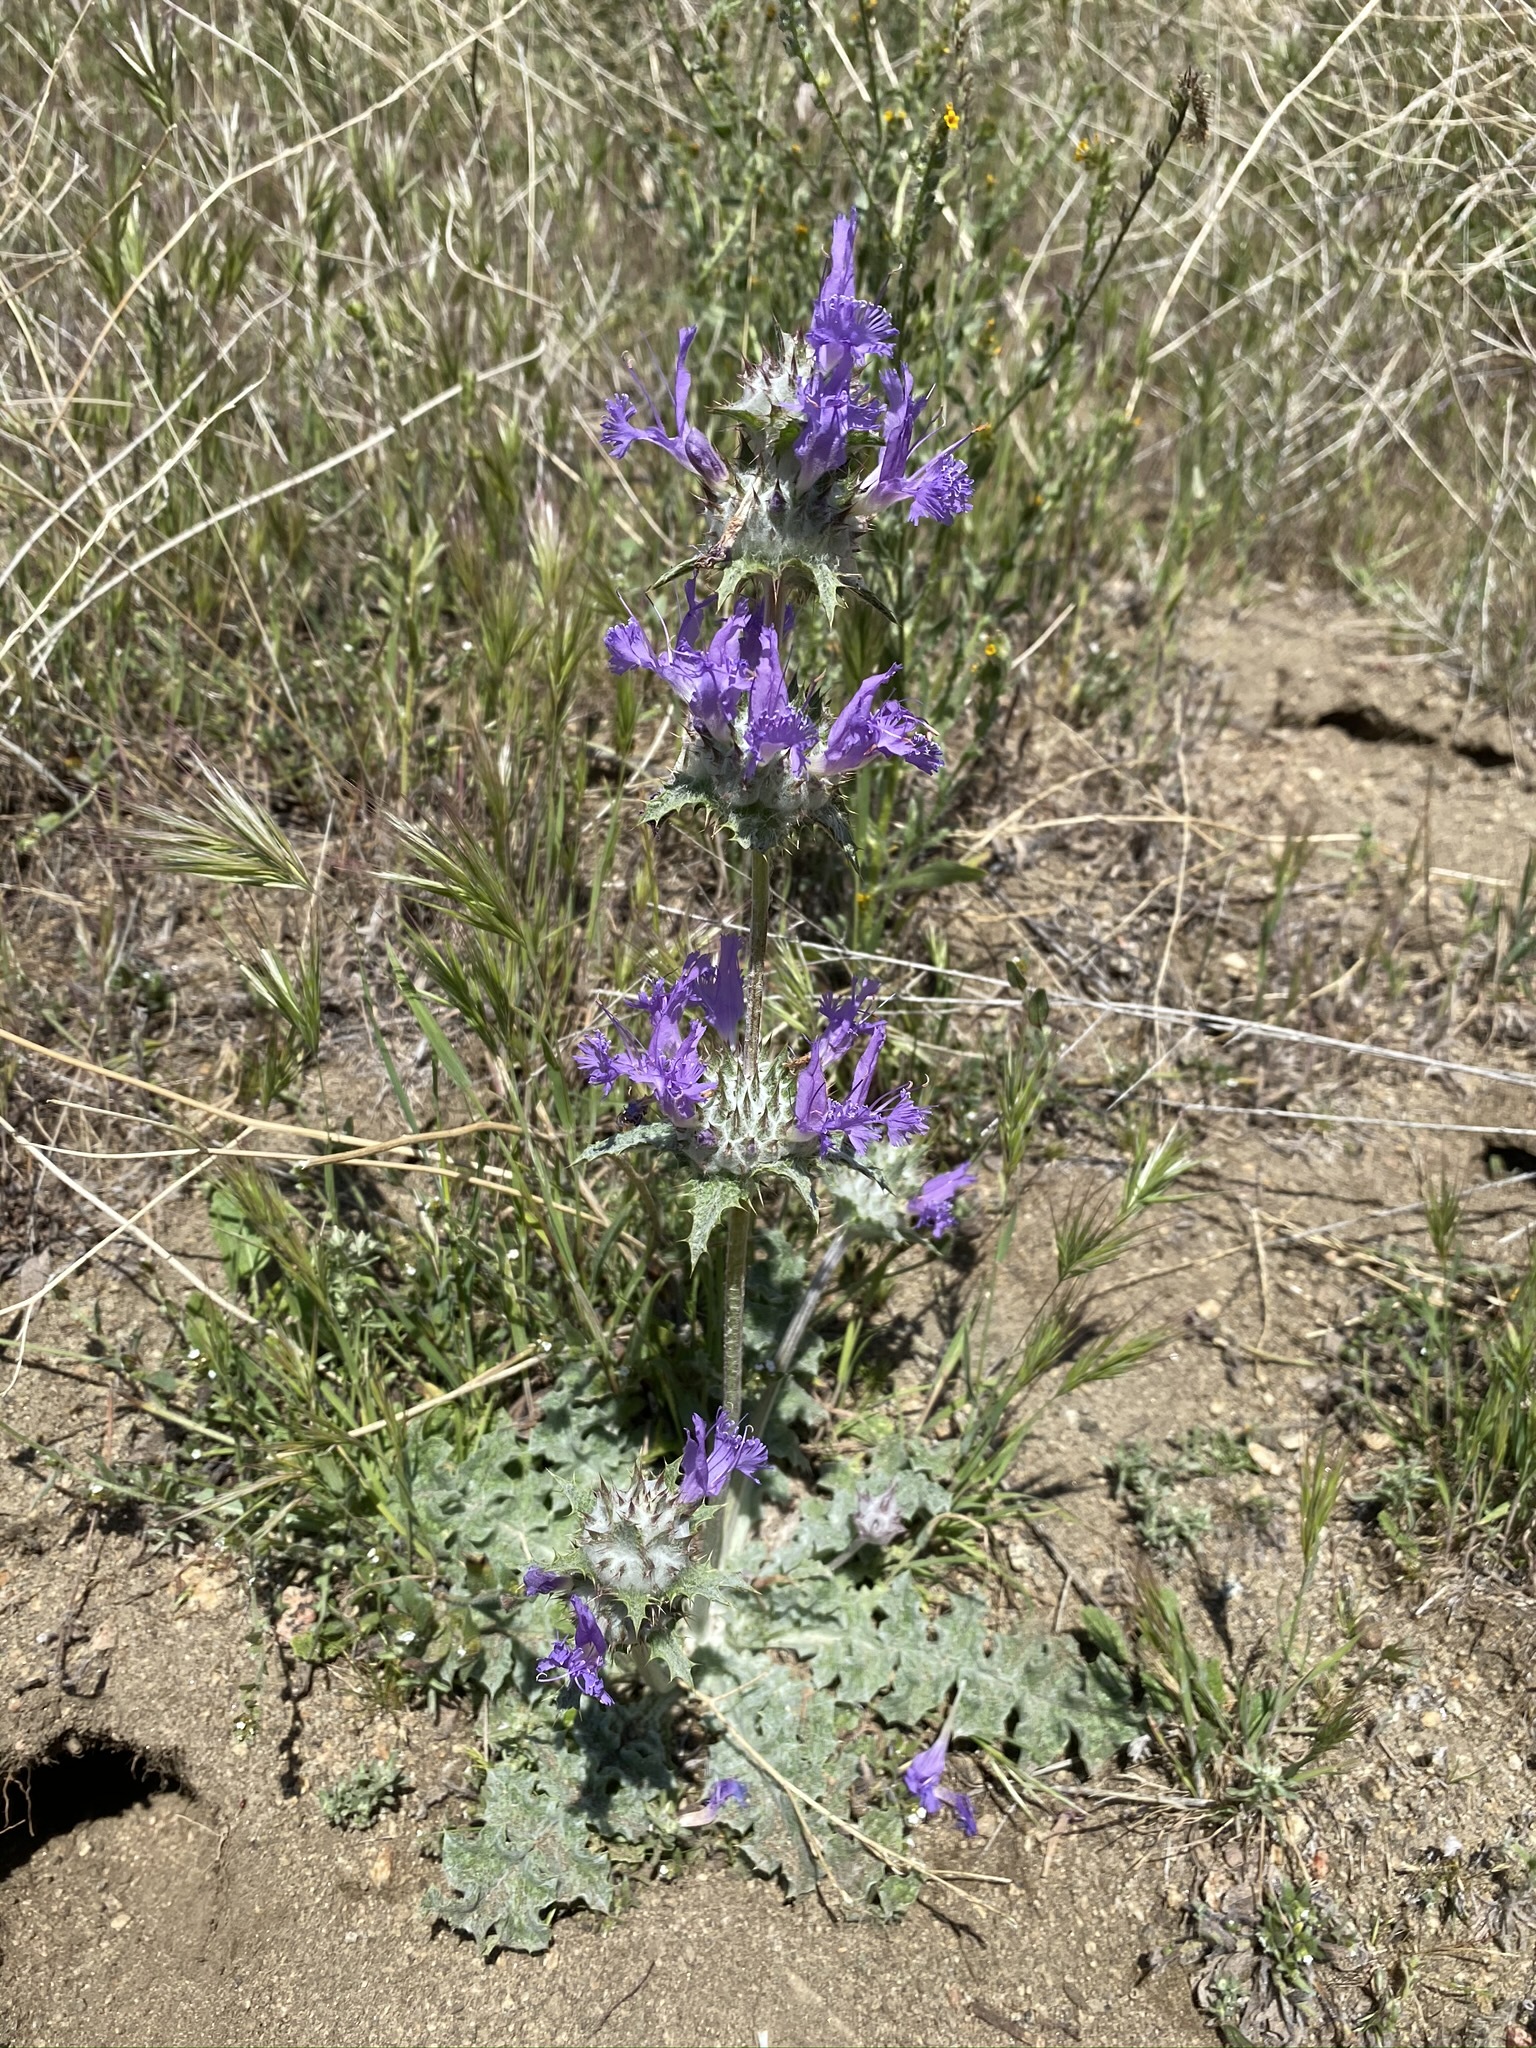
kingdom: Plantae
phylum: Tracheophyta
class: Magnoliopsida
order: Lamiales
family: Lamiaceae
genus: Salvia
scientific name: Salvia carduacea
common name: Thistle sage
